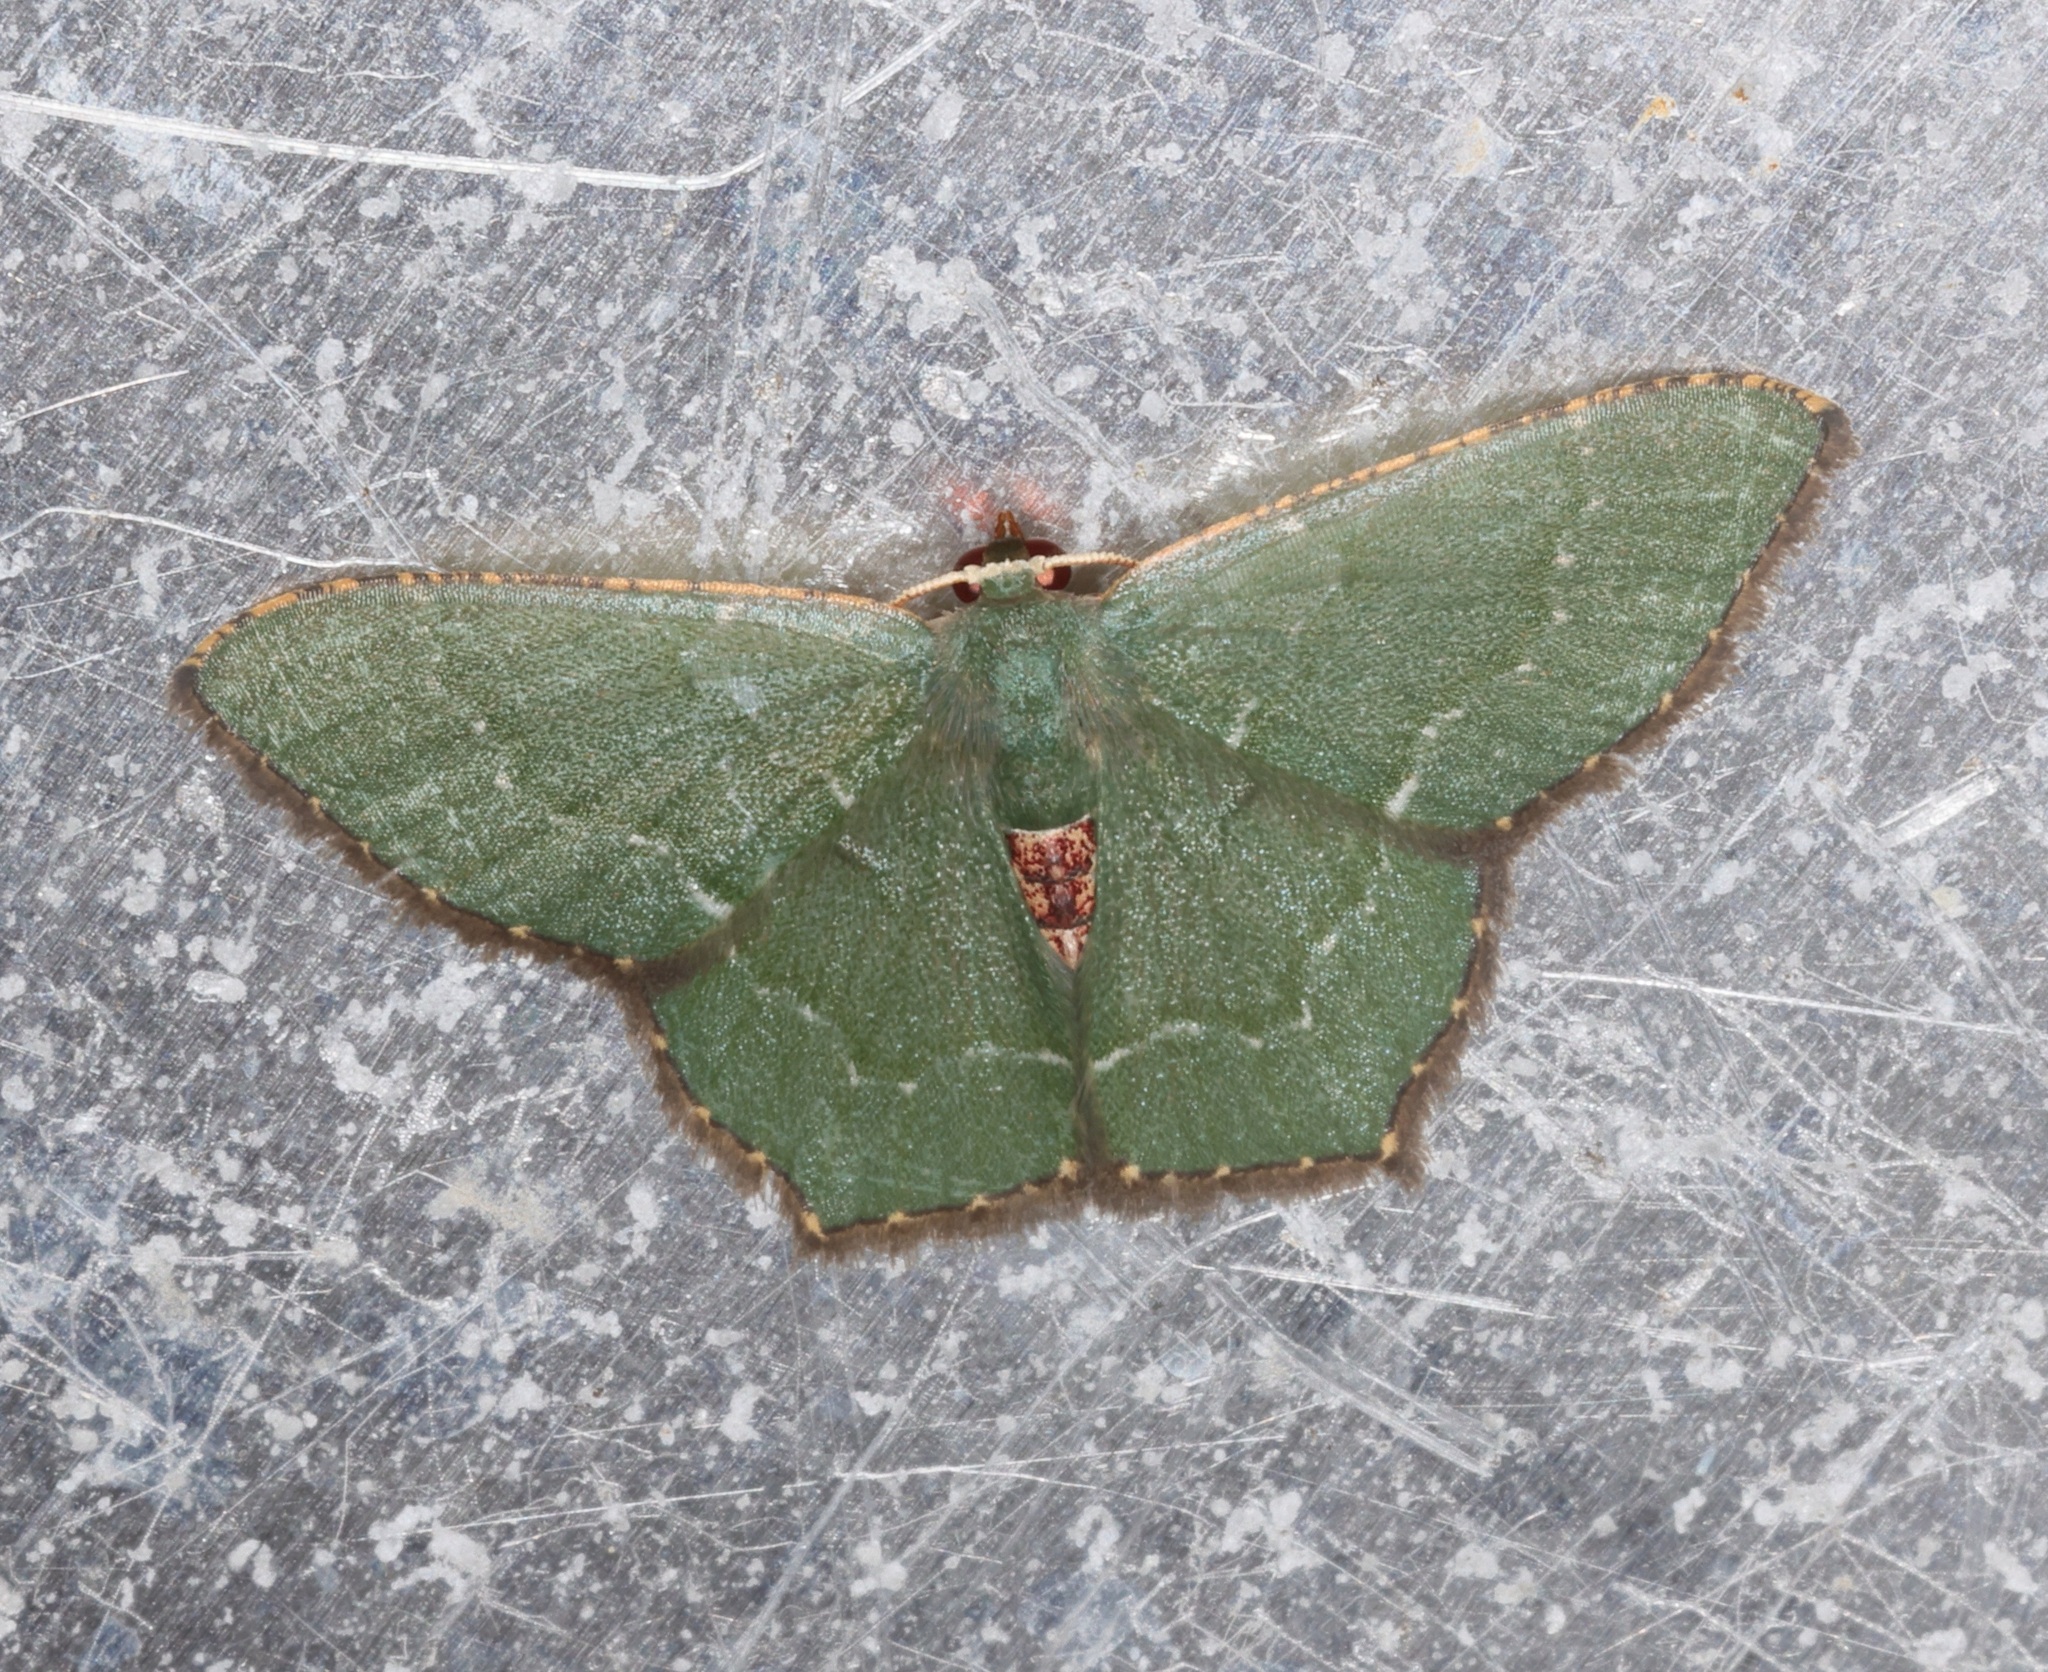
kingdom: Animalia
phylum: Arthropoda
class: Insecta
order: Lepidoptera
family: Geometridae
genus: Hemithea
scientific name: Hemithea tritonaria
